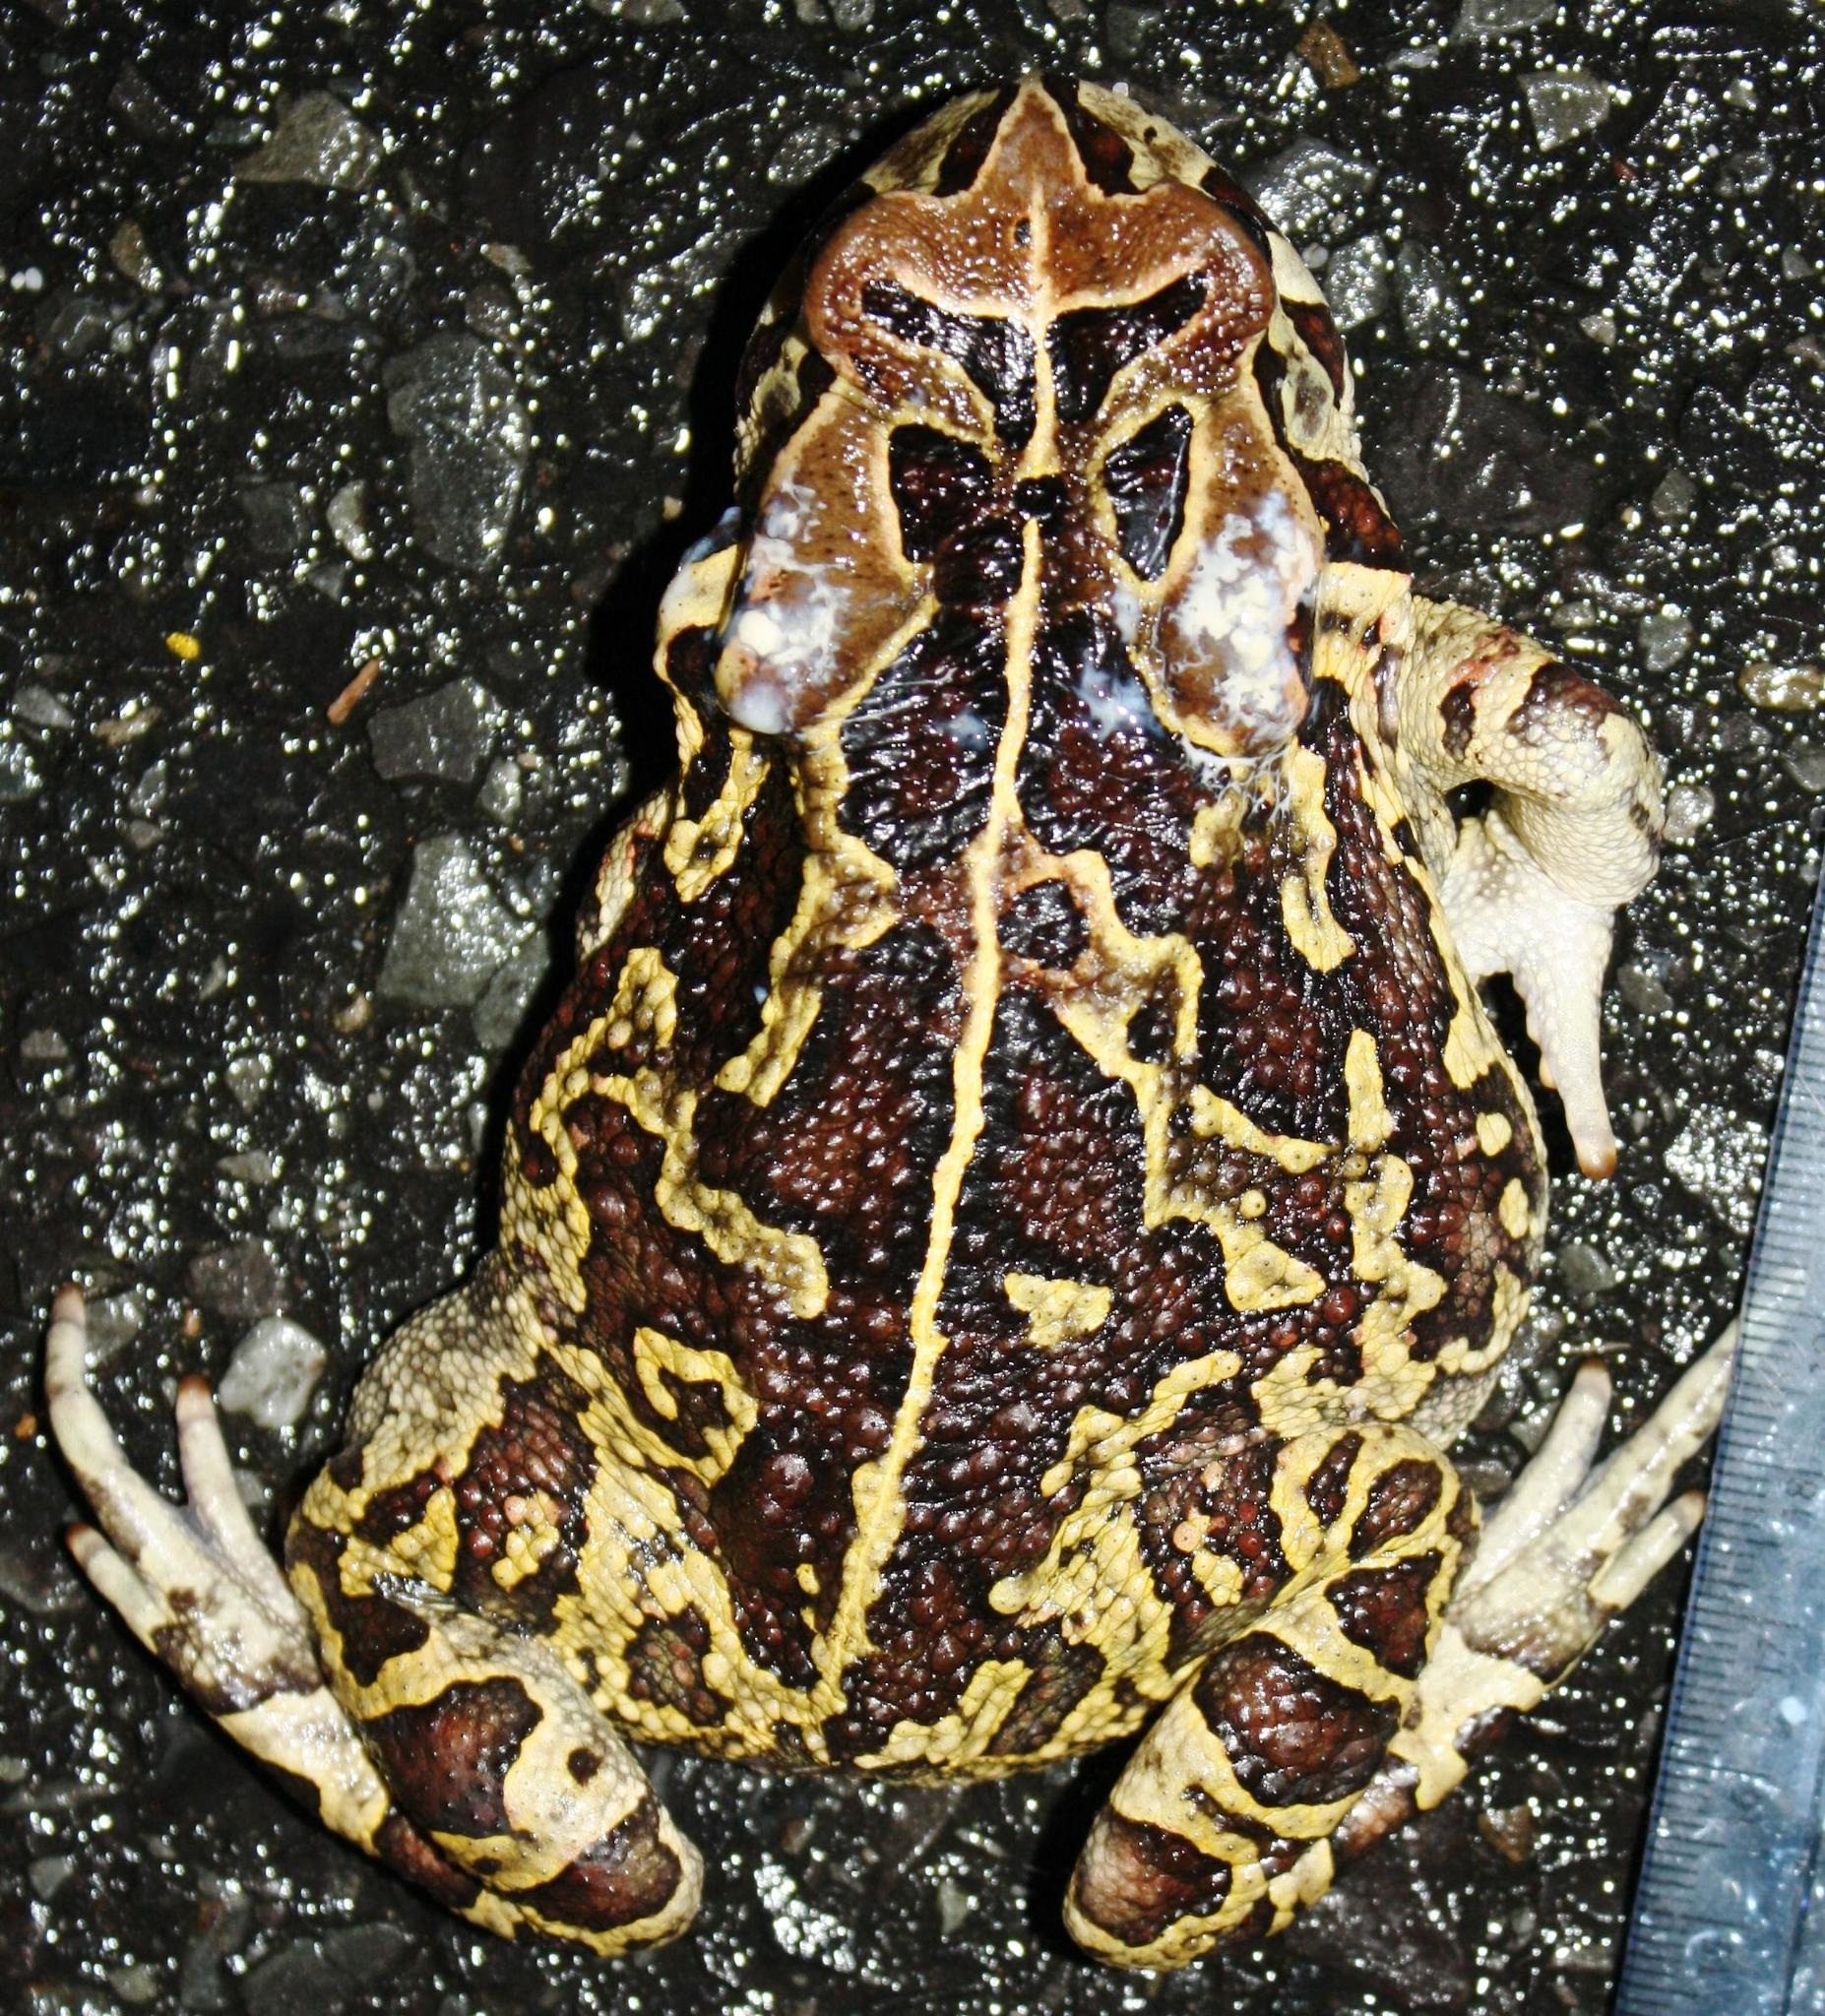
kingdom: Animalia
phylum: Chordata
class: Amphibia
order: Anura
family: Bufonidae
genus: Sclerophrys
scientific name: Sclerophrys pantherina
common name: Panther toad
